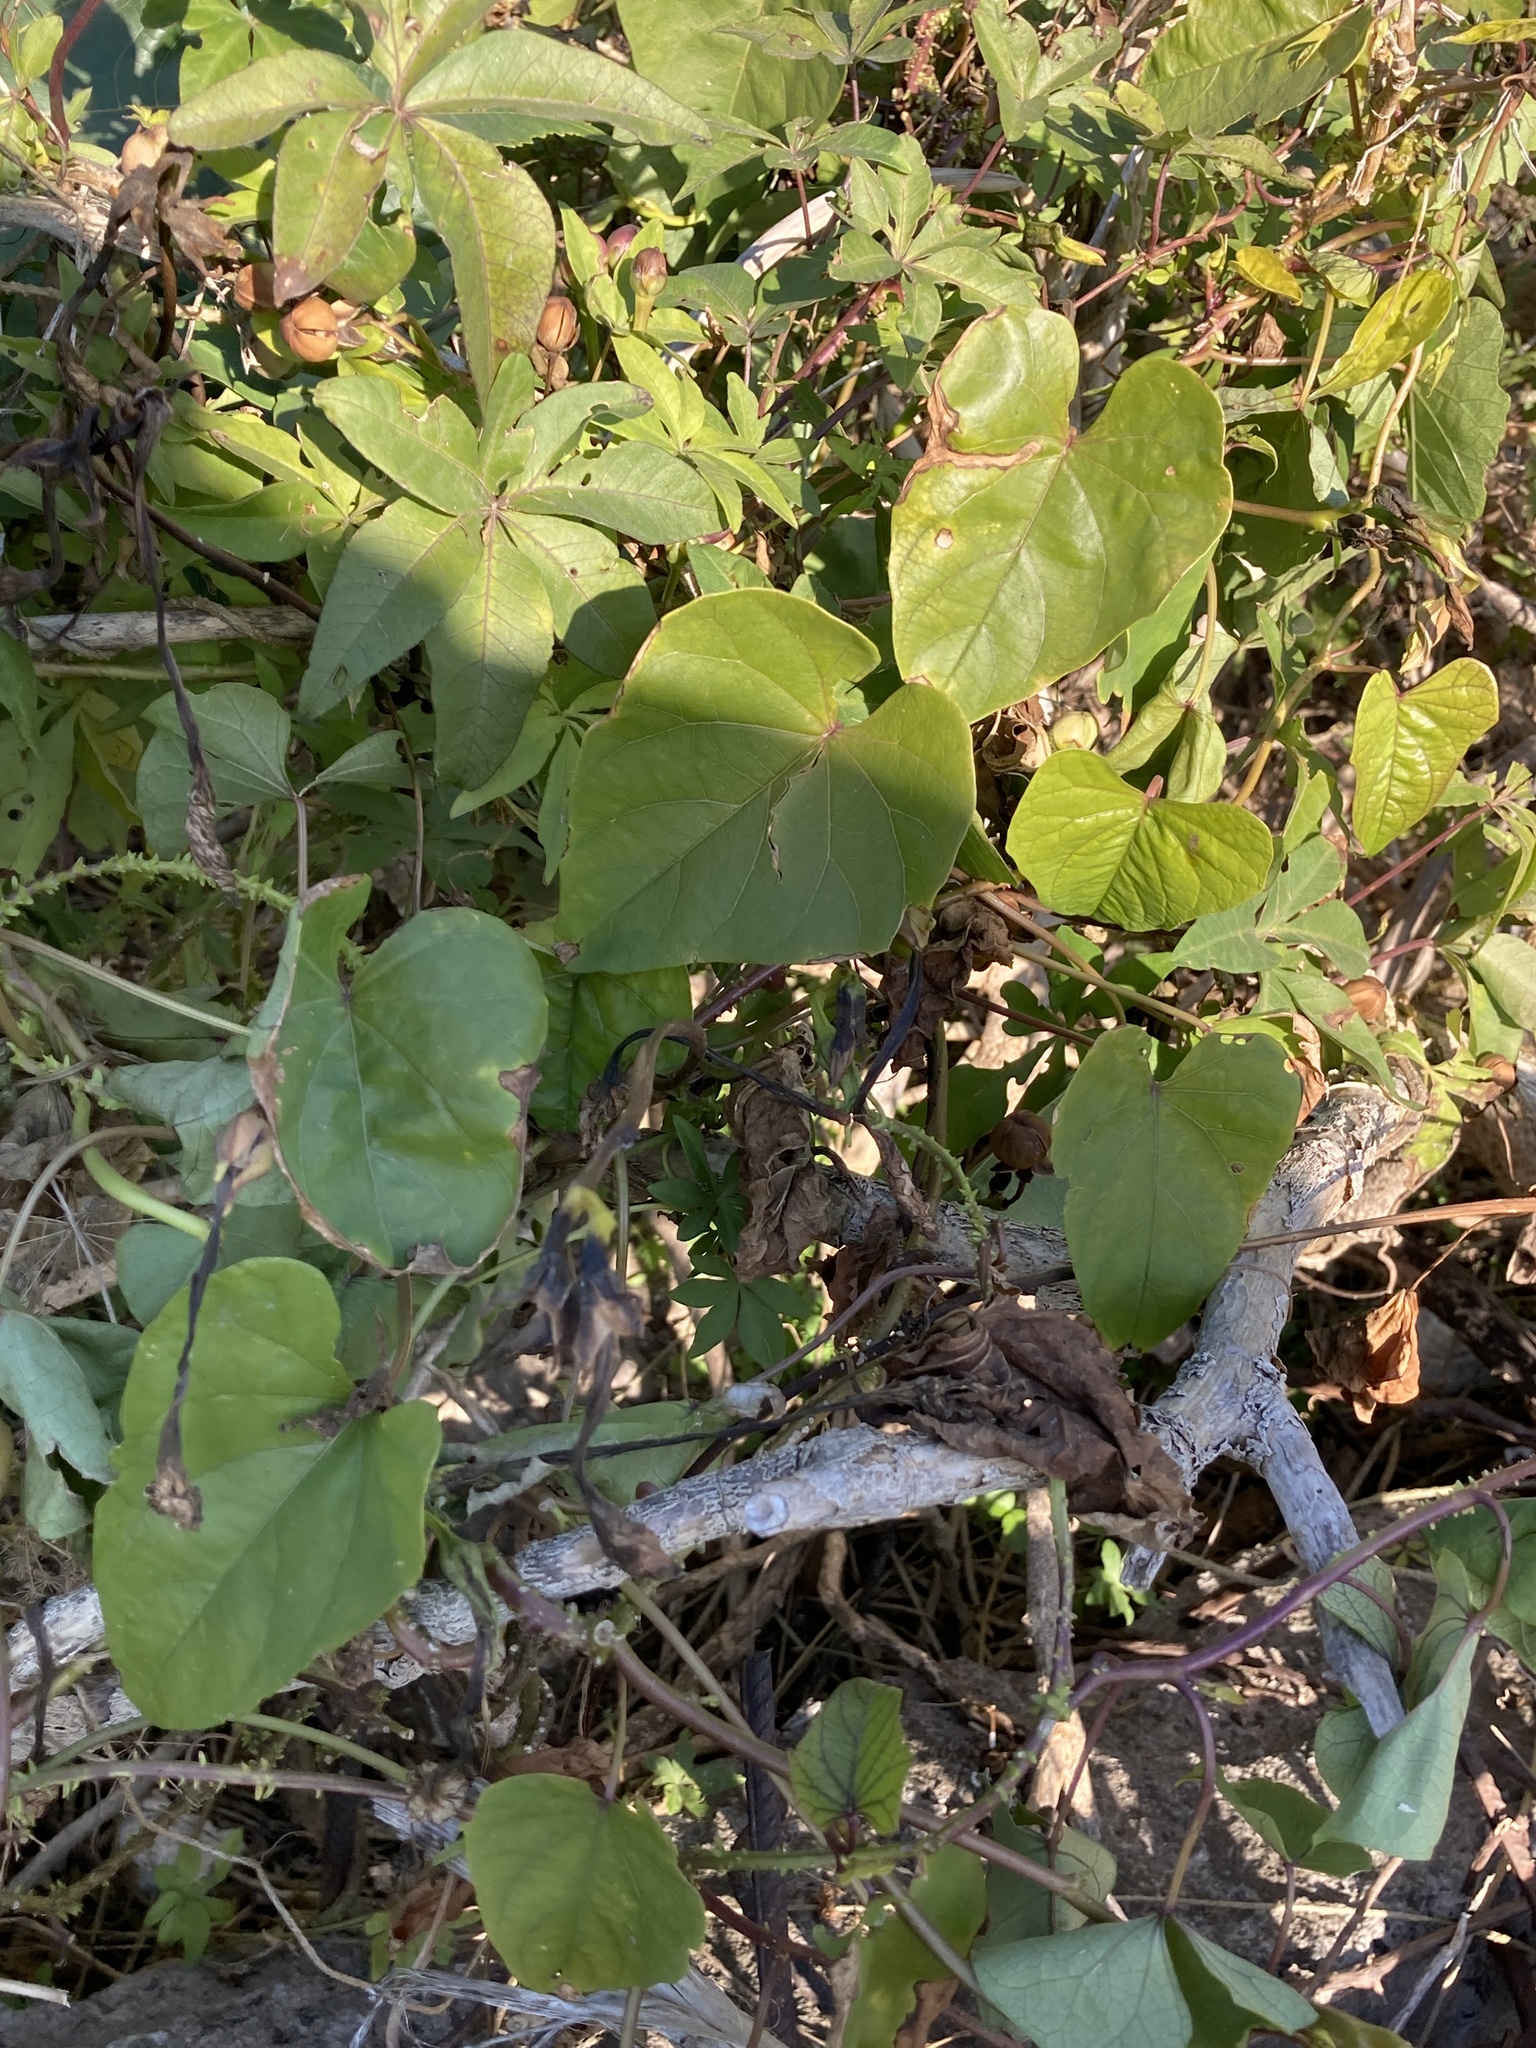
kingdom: Plantae
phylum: Tracheophyta
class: Magnoliopsida
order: Solanales
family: Convolvulaceae
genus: Ipomoea
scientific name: Ipomoea alba
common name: Moonflower
